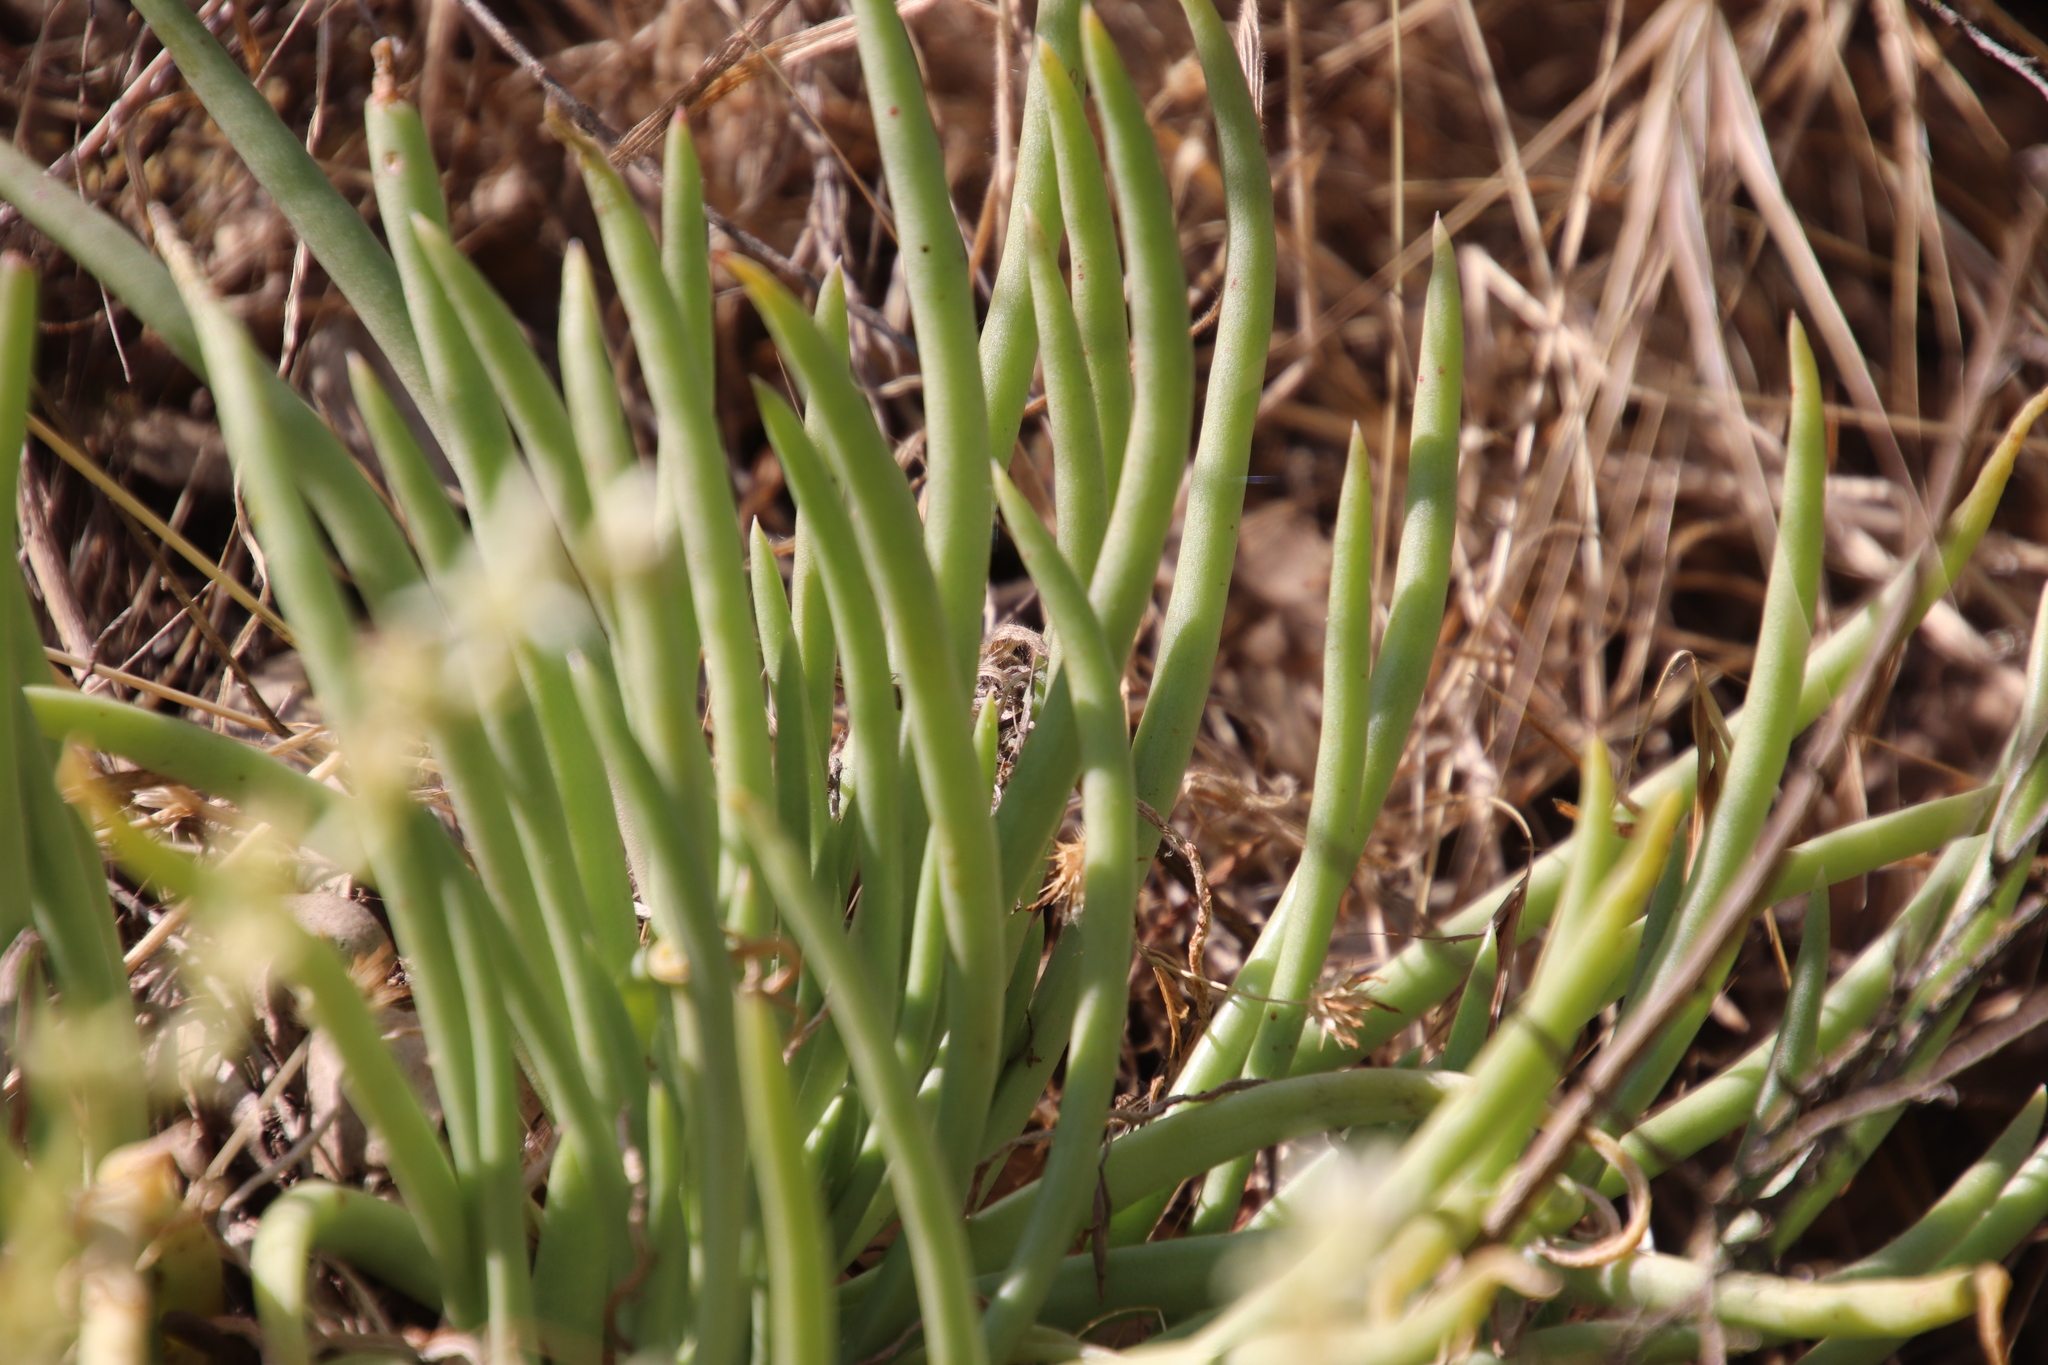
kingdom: Plantae
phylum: Tracheophyta
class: Magnoliopsida
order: Saxifragales
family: Crassulaceae
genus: Dudleya
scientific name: Dudleya edulis
